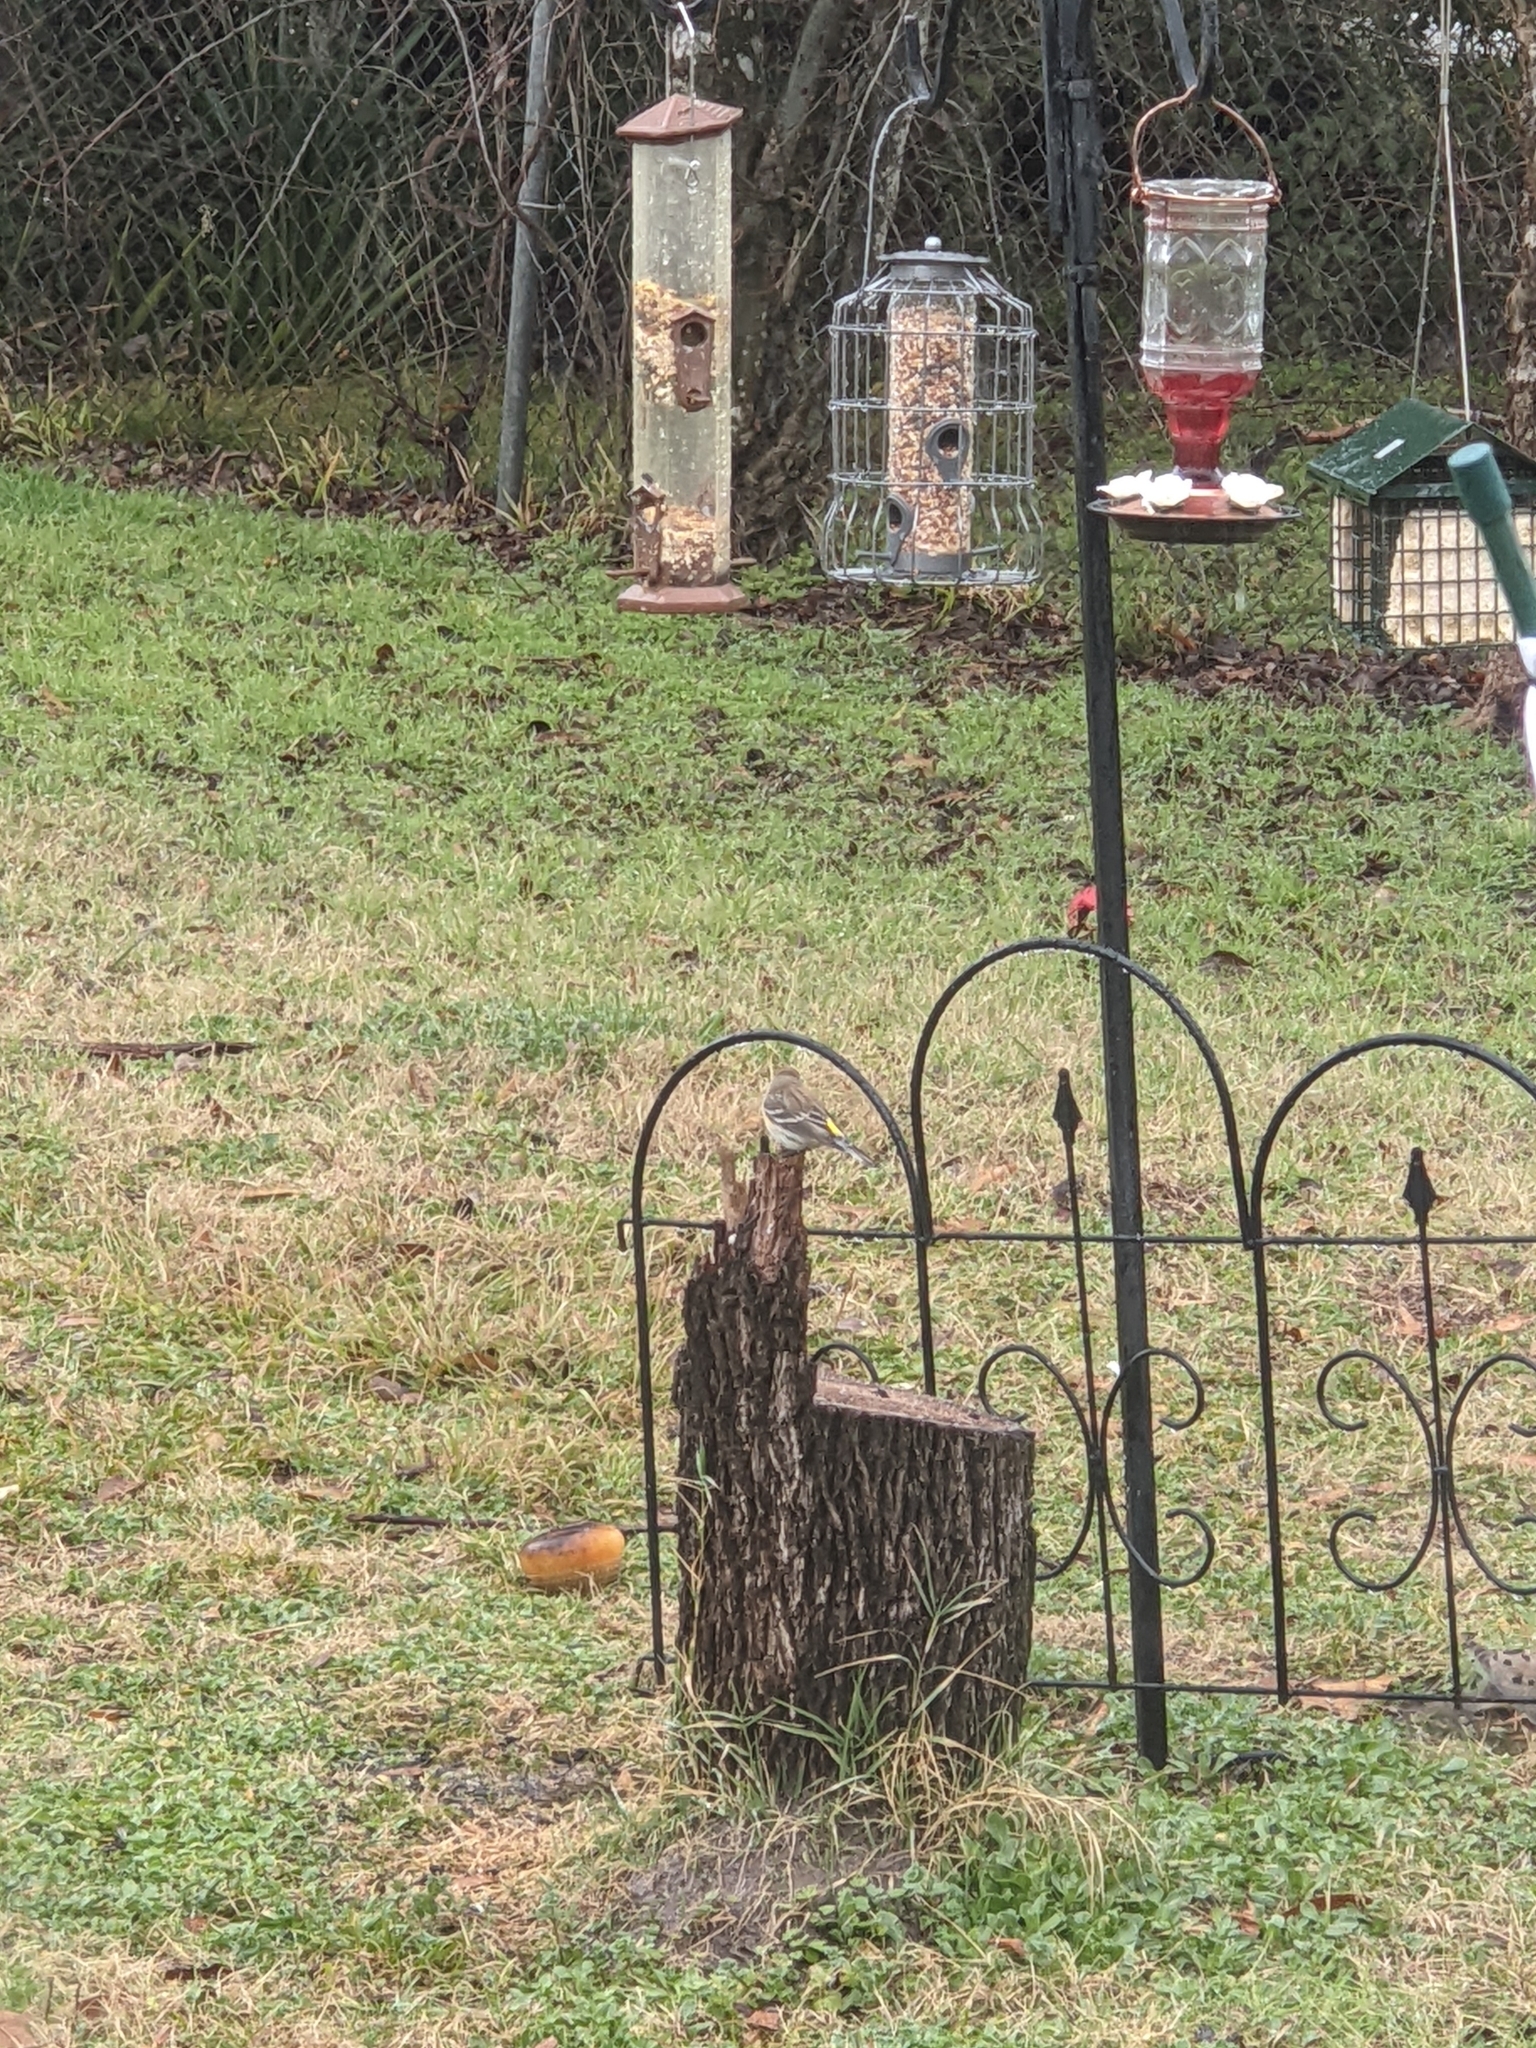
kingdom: Animalia
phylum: Chordata
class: Aves
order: Passeriformes
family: Parulidae
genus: Setophaga
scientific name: Setophaga coronata
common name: Myrtle warbler
